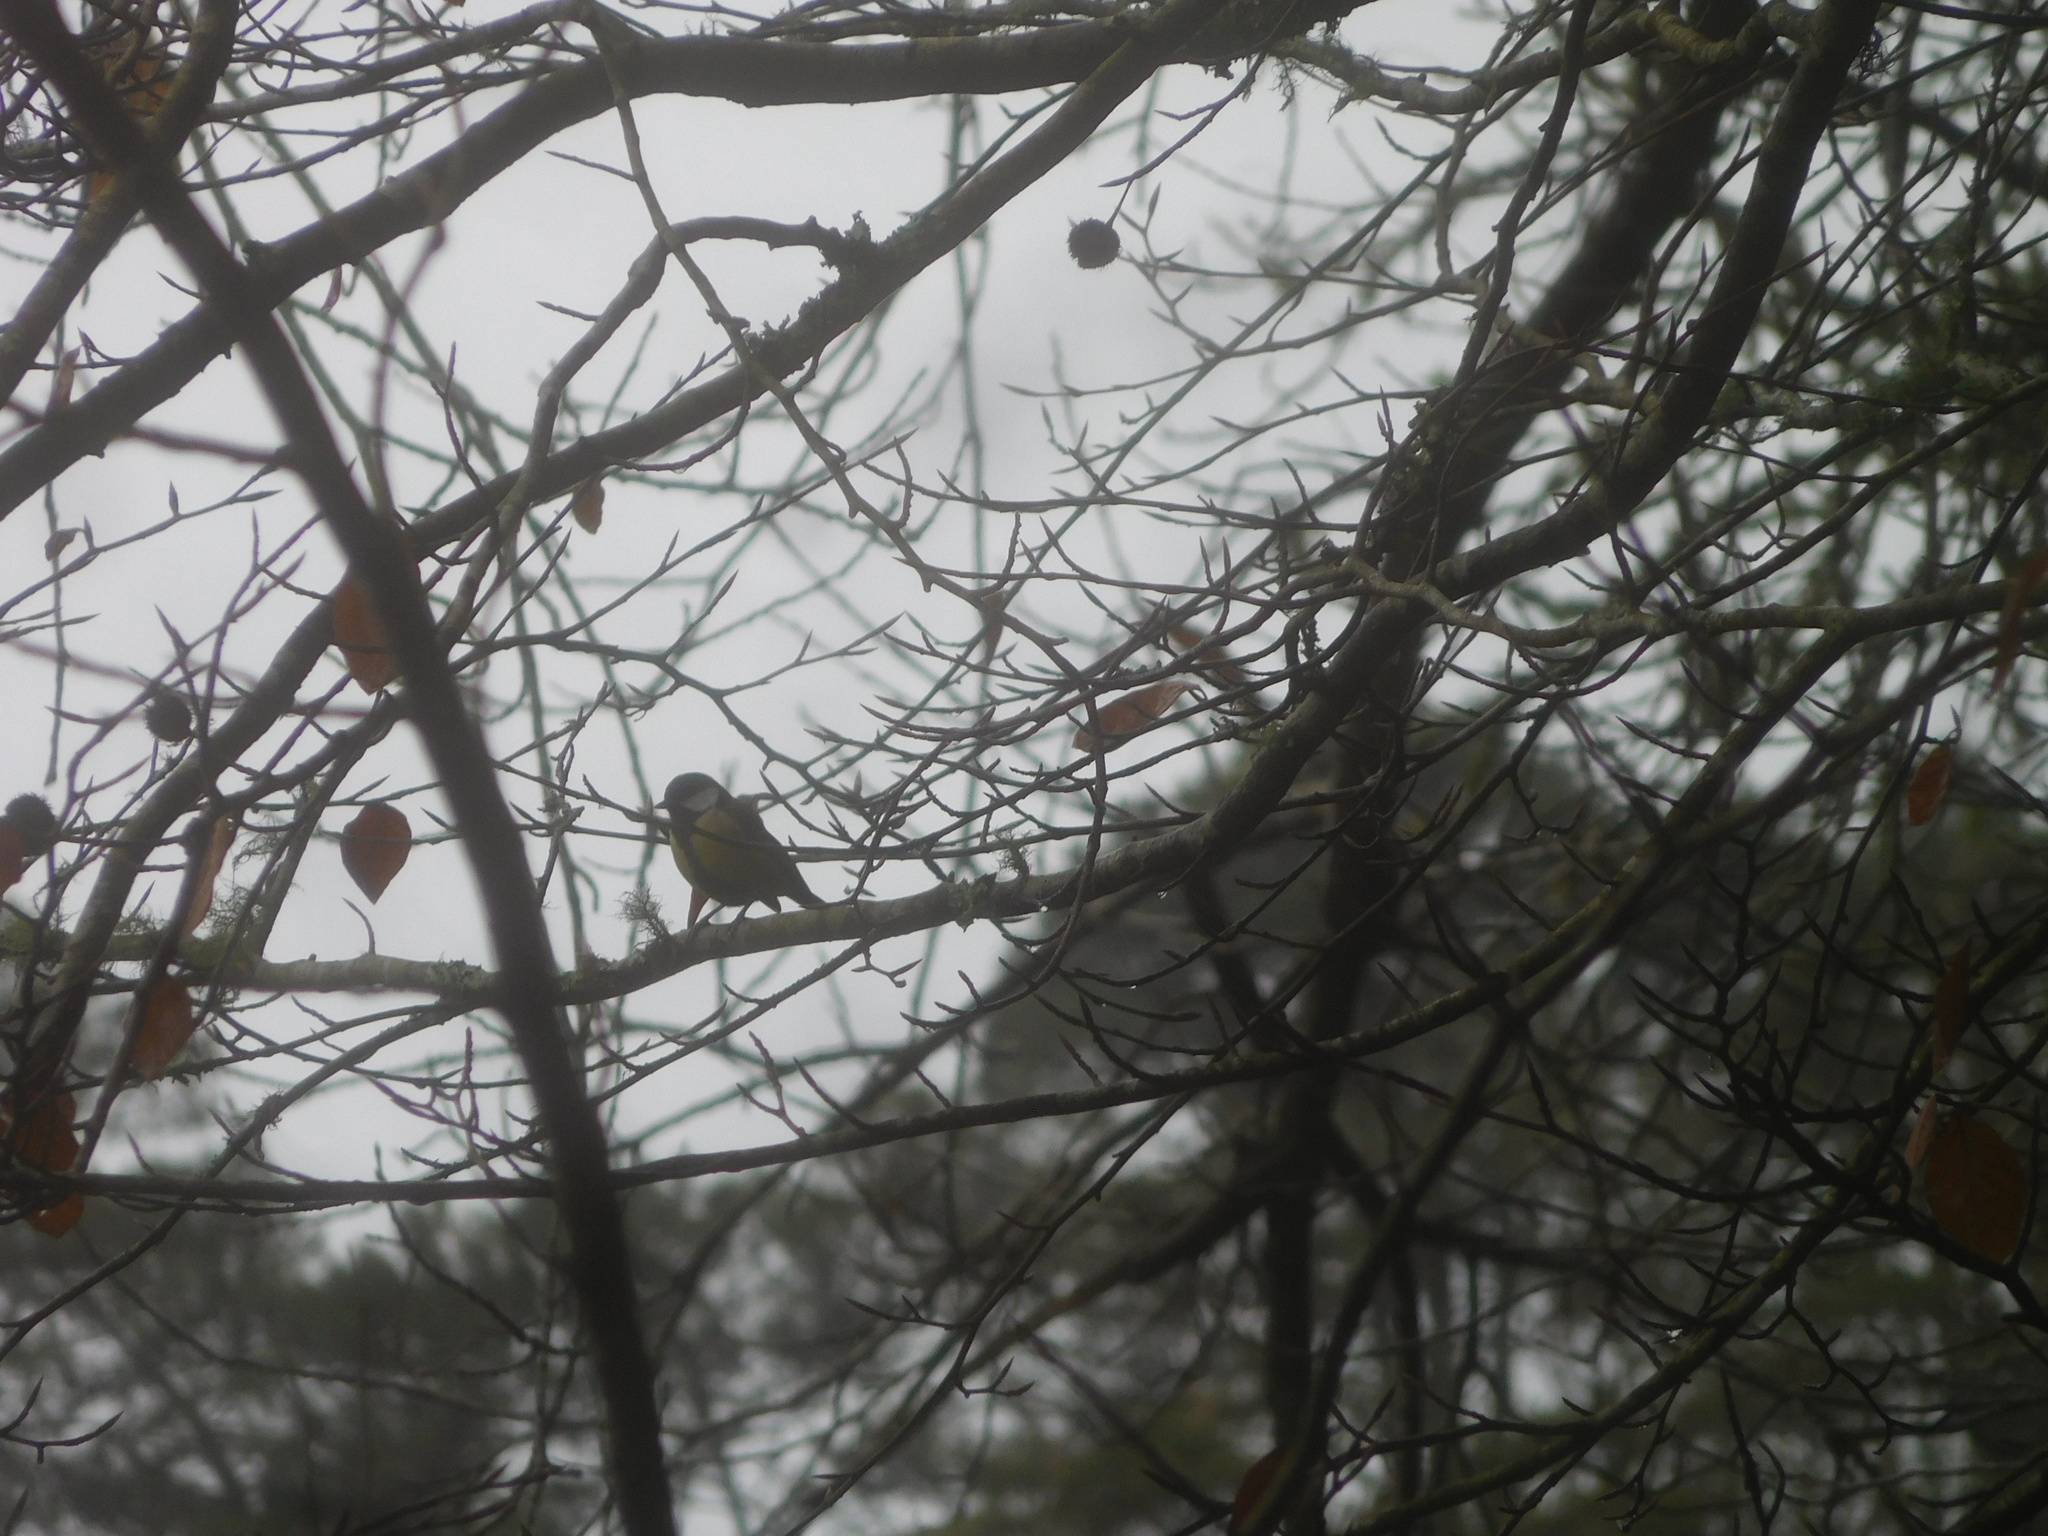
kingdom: Animalia
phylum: Chordata
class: Aves
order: Passeriformes
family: Paridae
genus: Parus
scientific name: Parus major
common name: Great tit
